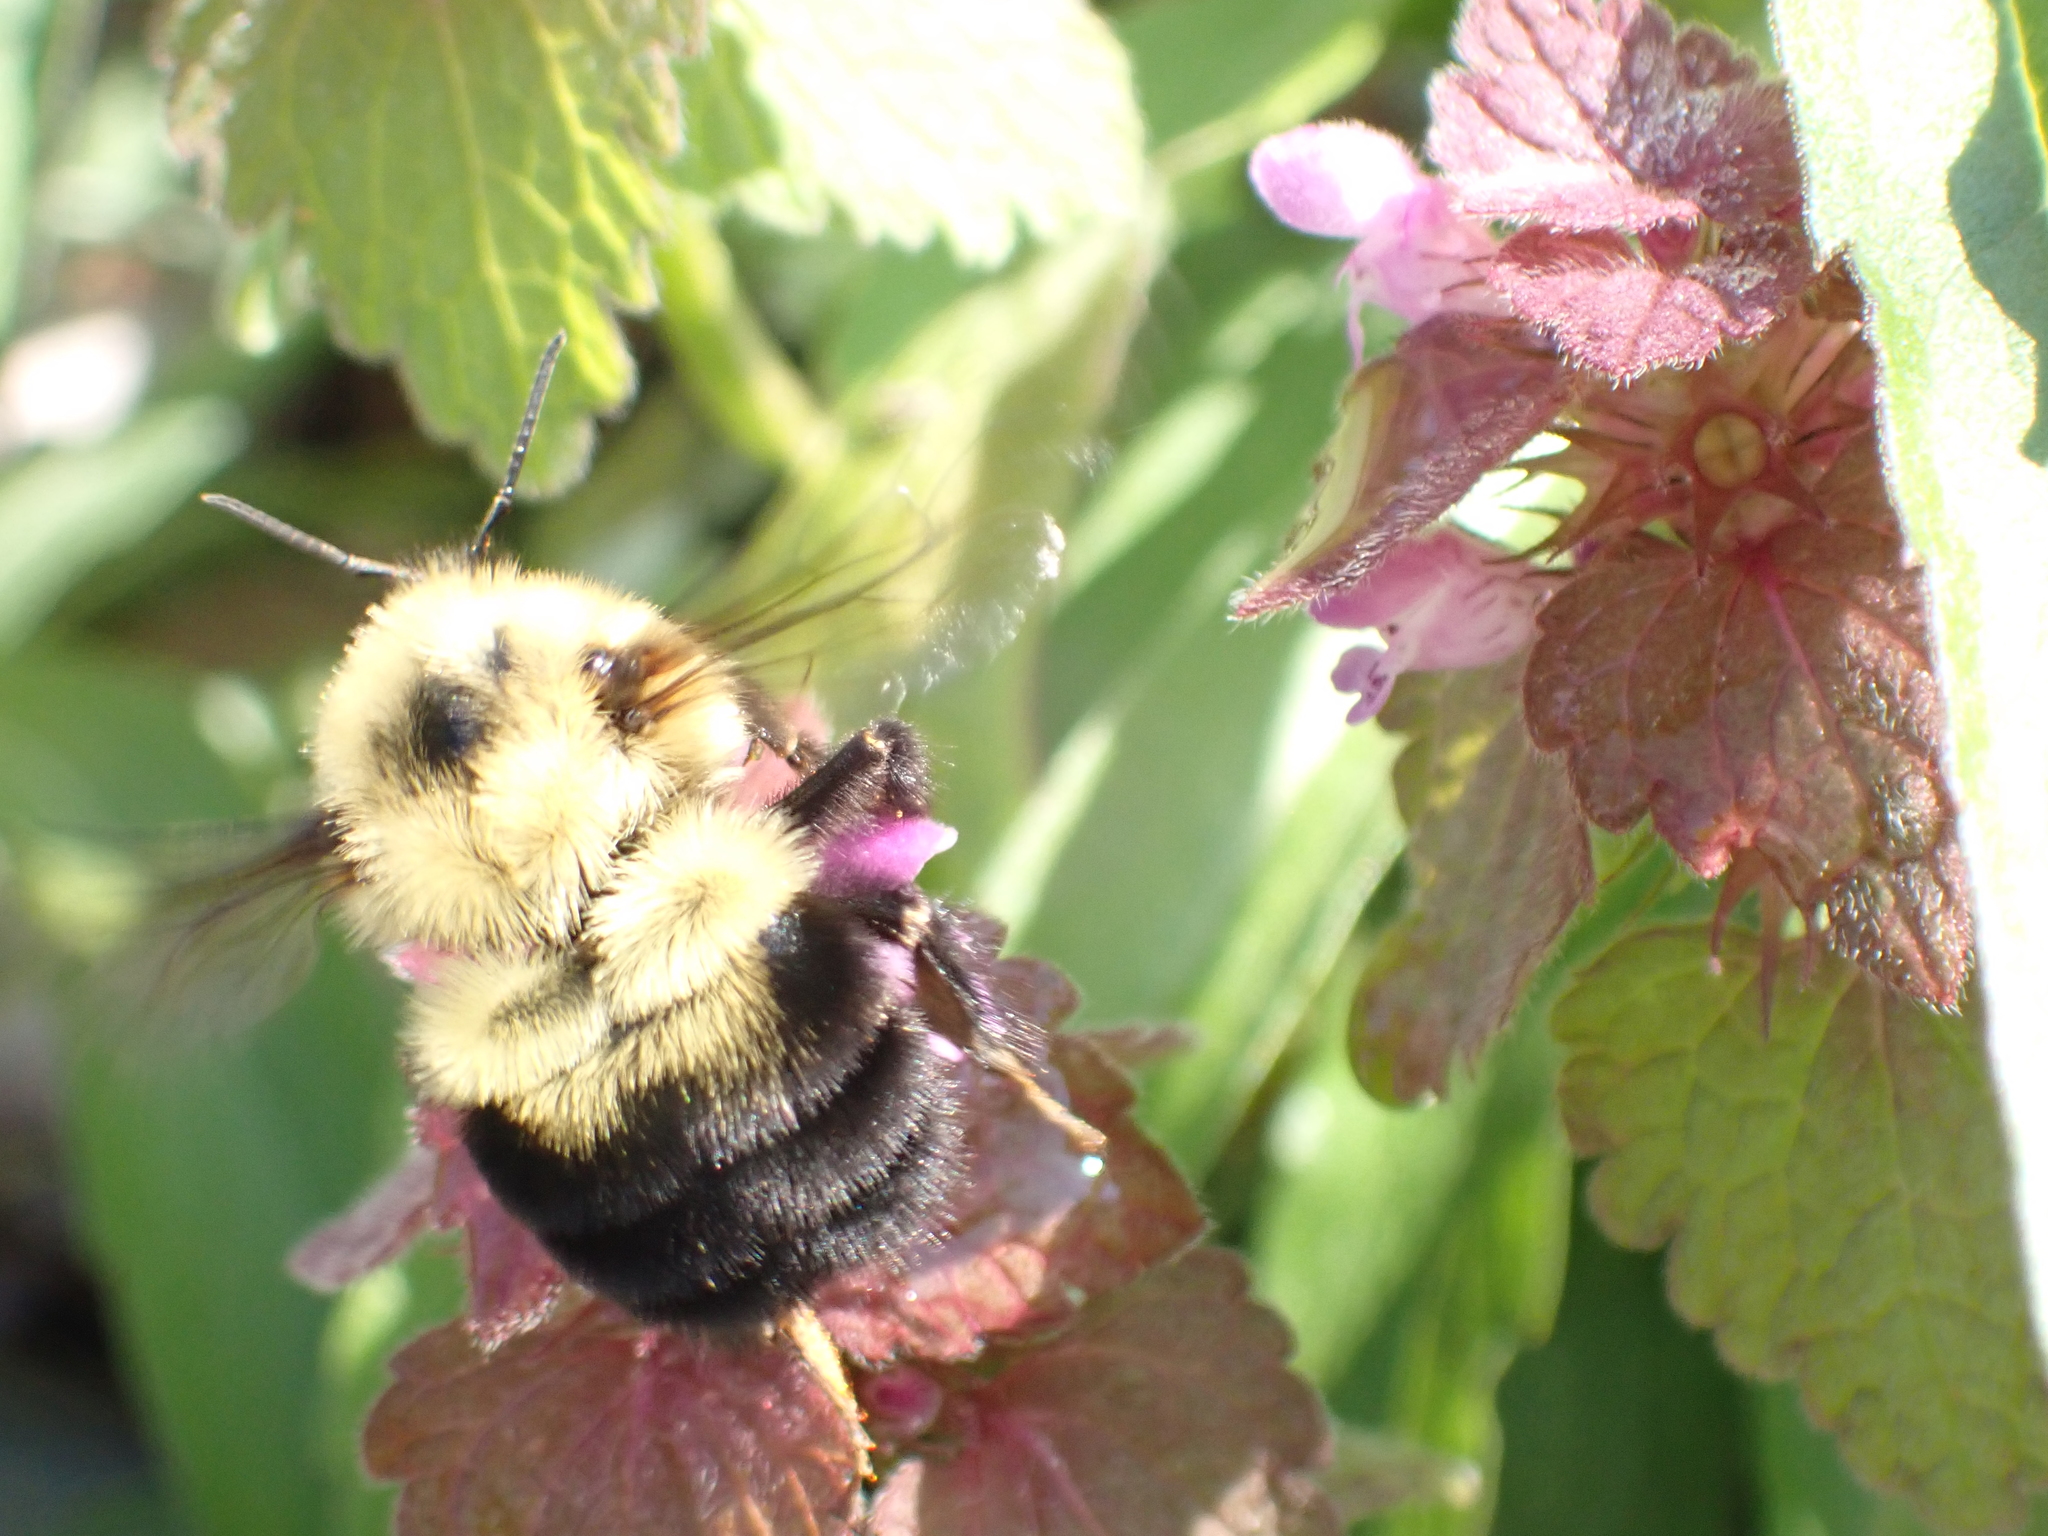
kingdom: Animalia
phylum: Arthropoda
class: Insecta
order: Hymenoptera
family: Apidae
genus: Bombus
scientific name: Bombus bimaculatus
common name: Two-spotted bumble bee
